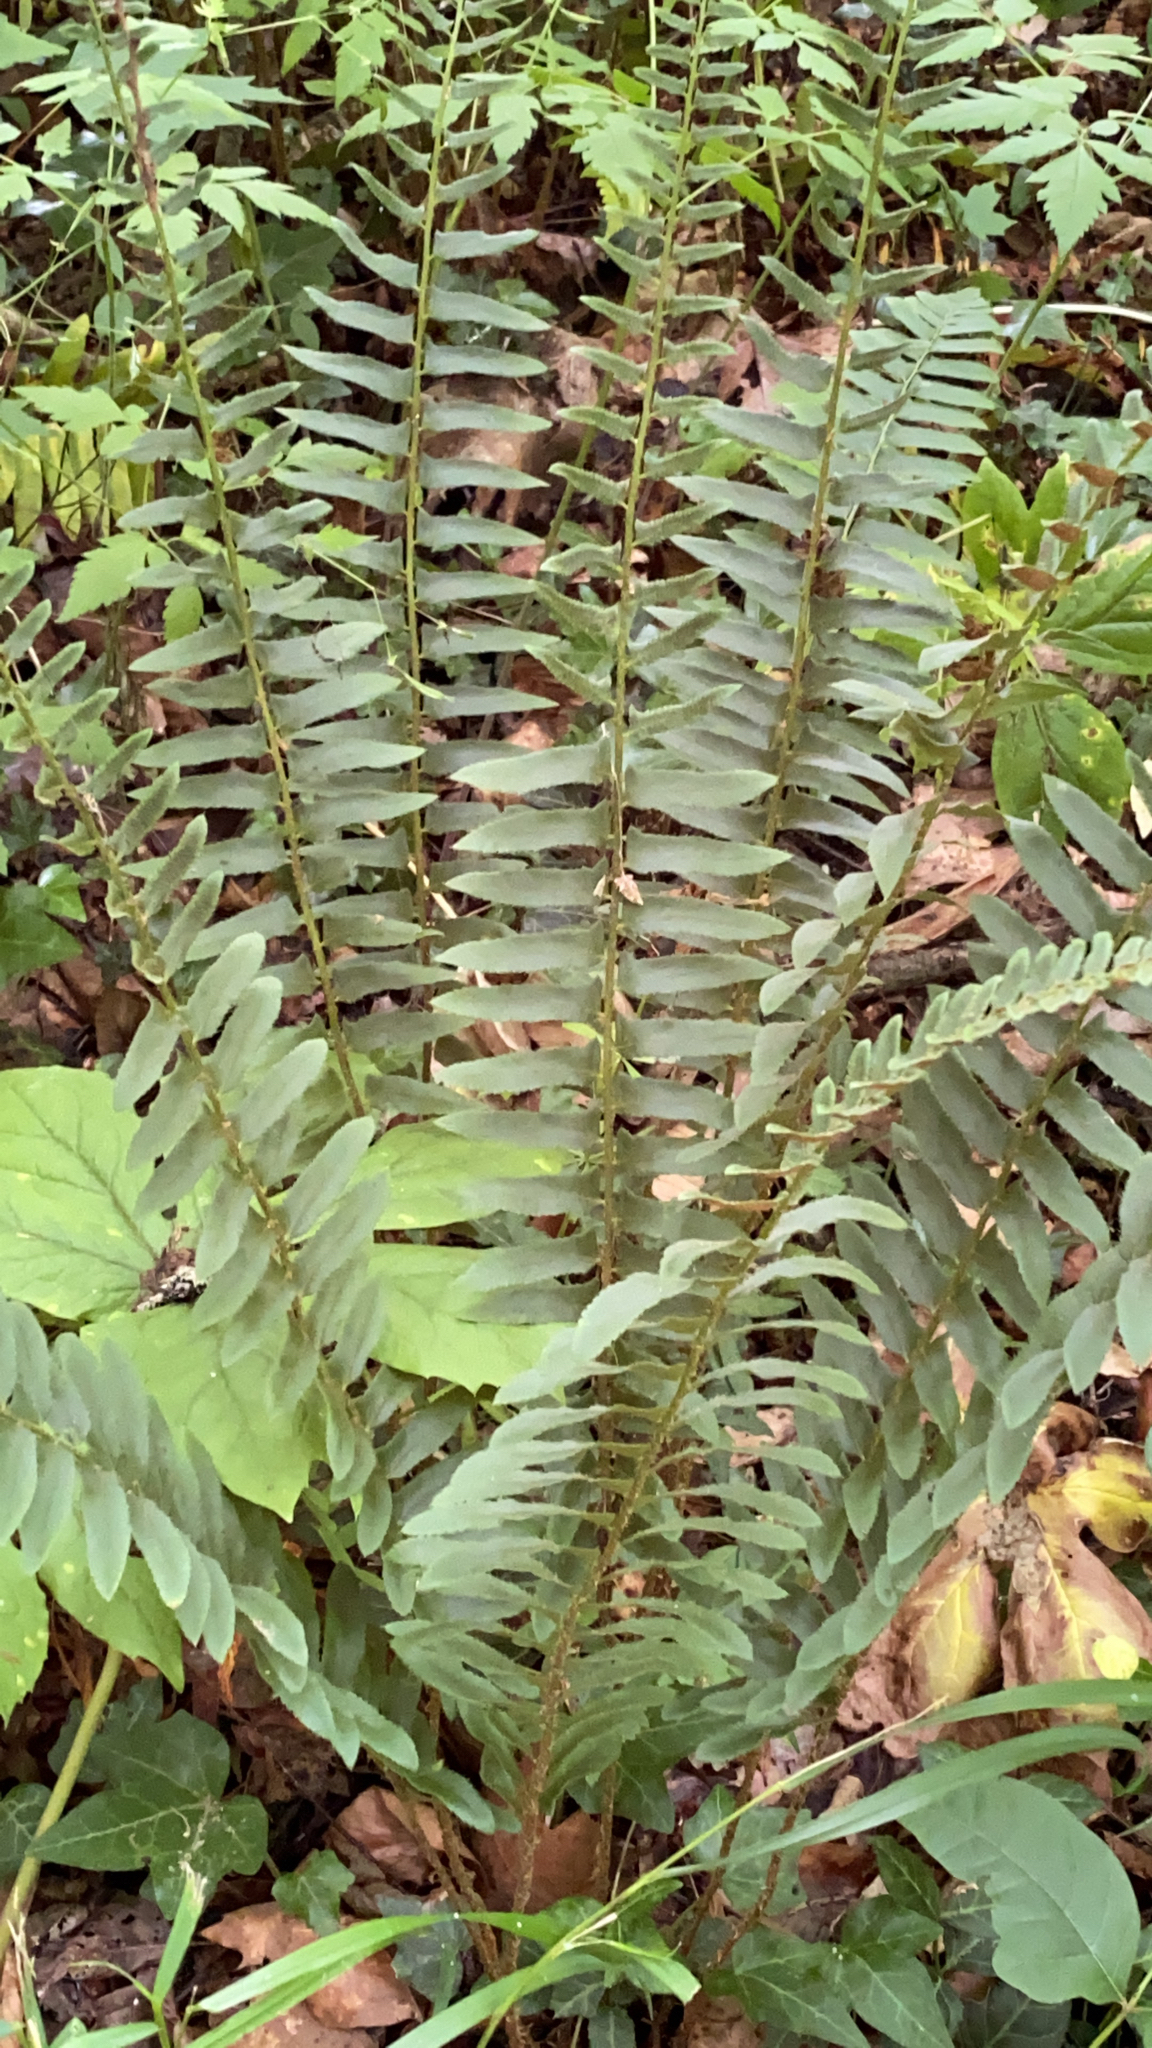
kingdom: Plantae
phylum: Tracheophyta
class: Polypodiopsida
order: Polypodiales
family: Dryopteridaceae
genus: Polystichum
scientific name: Polystichum acrostichoides
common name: Christmas fern
